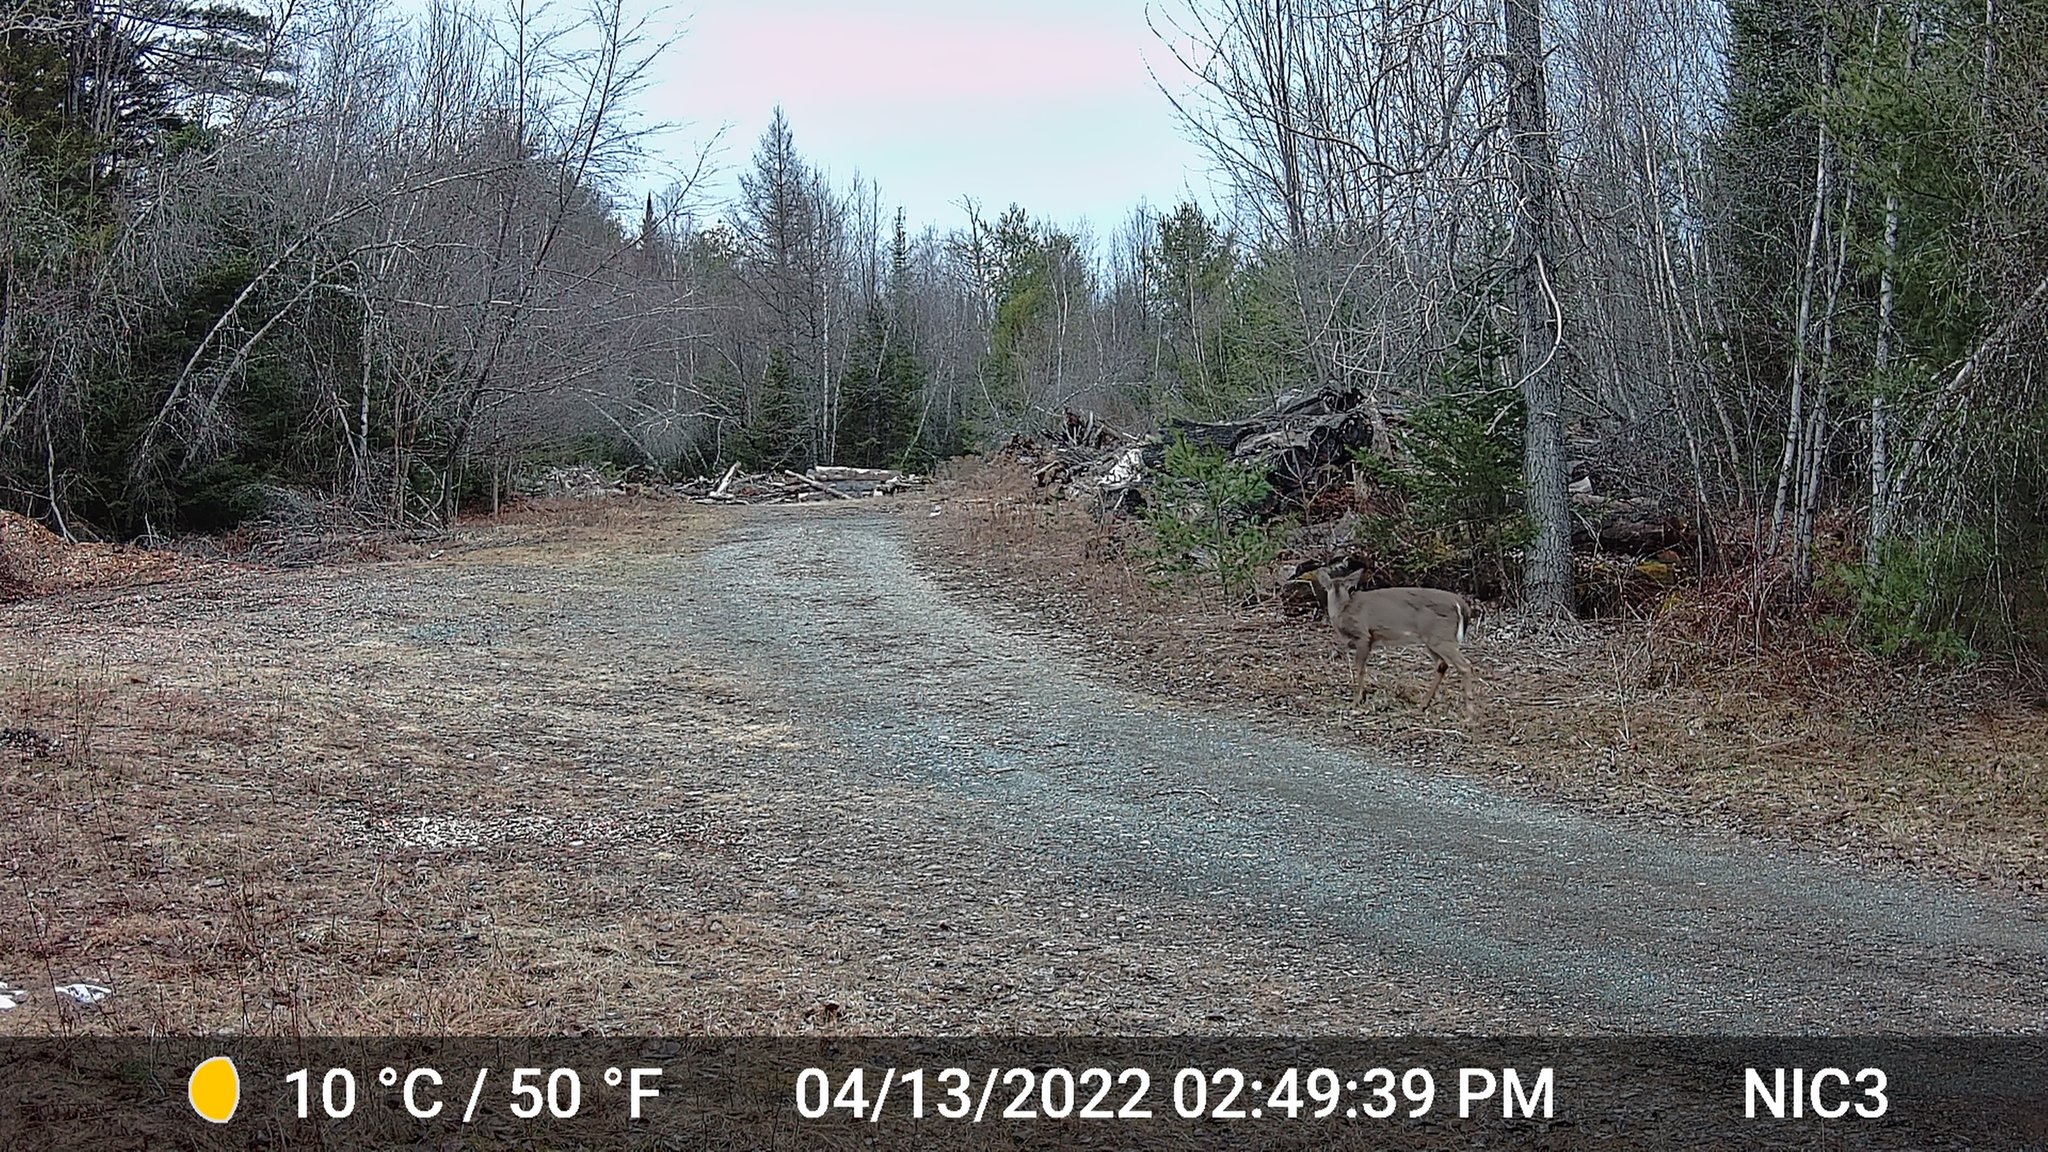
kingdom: Animalia
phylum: Chordata
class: Mammalia
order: Artiodactyla
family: Cervidae
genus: Odocoileus
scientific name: Odocoileus virginianus
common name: White-tailed deer
